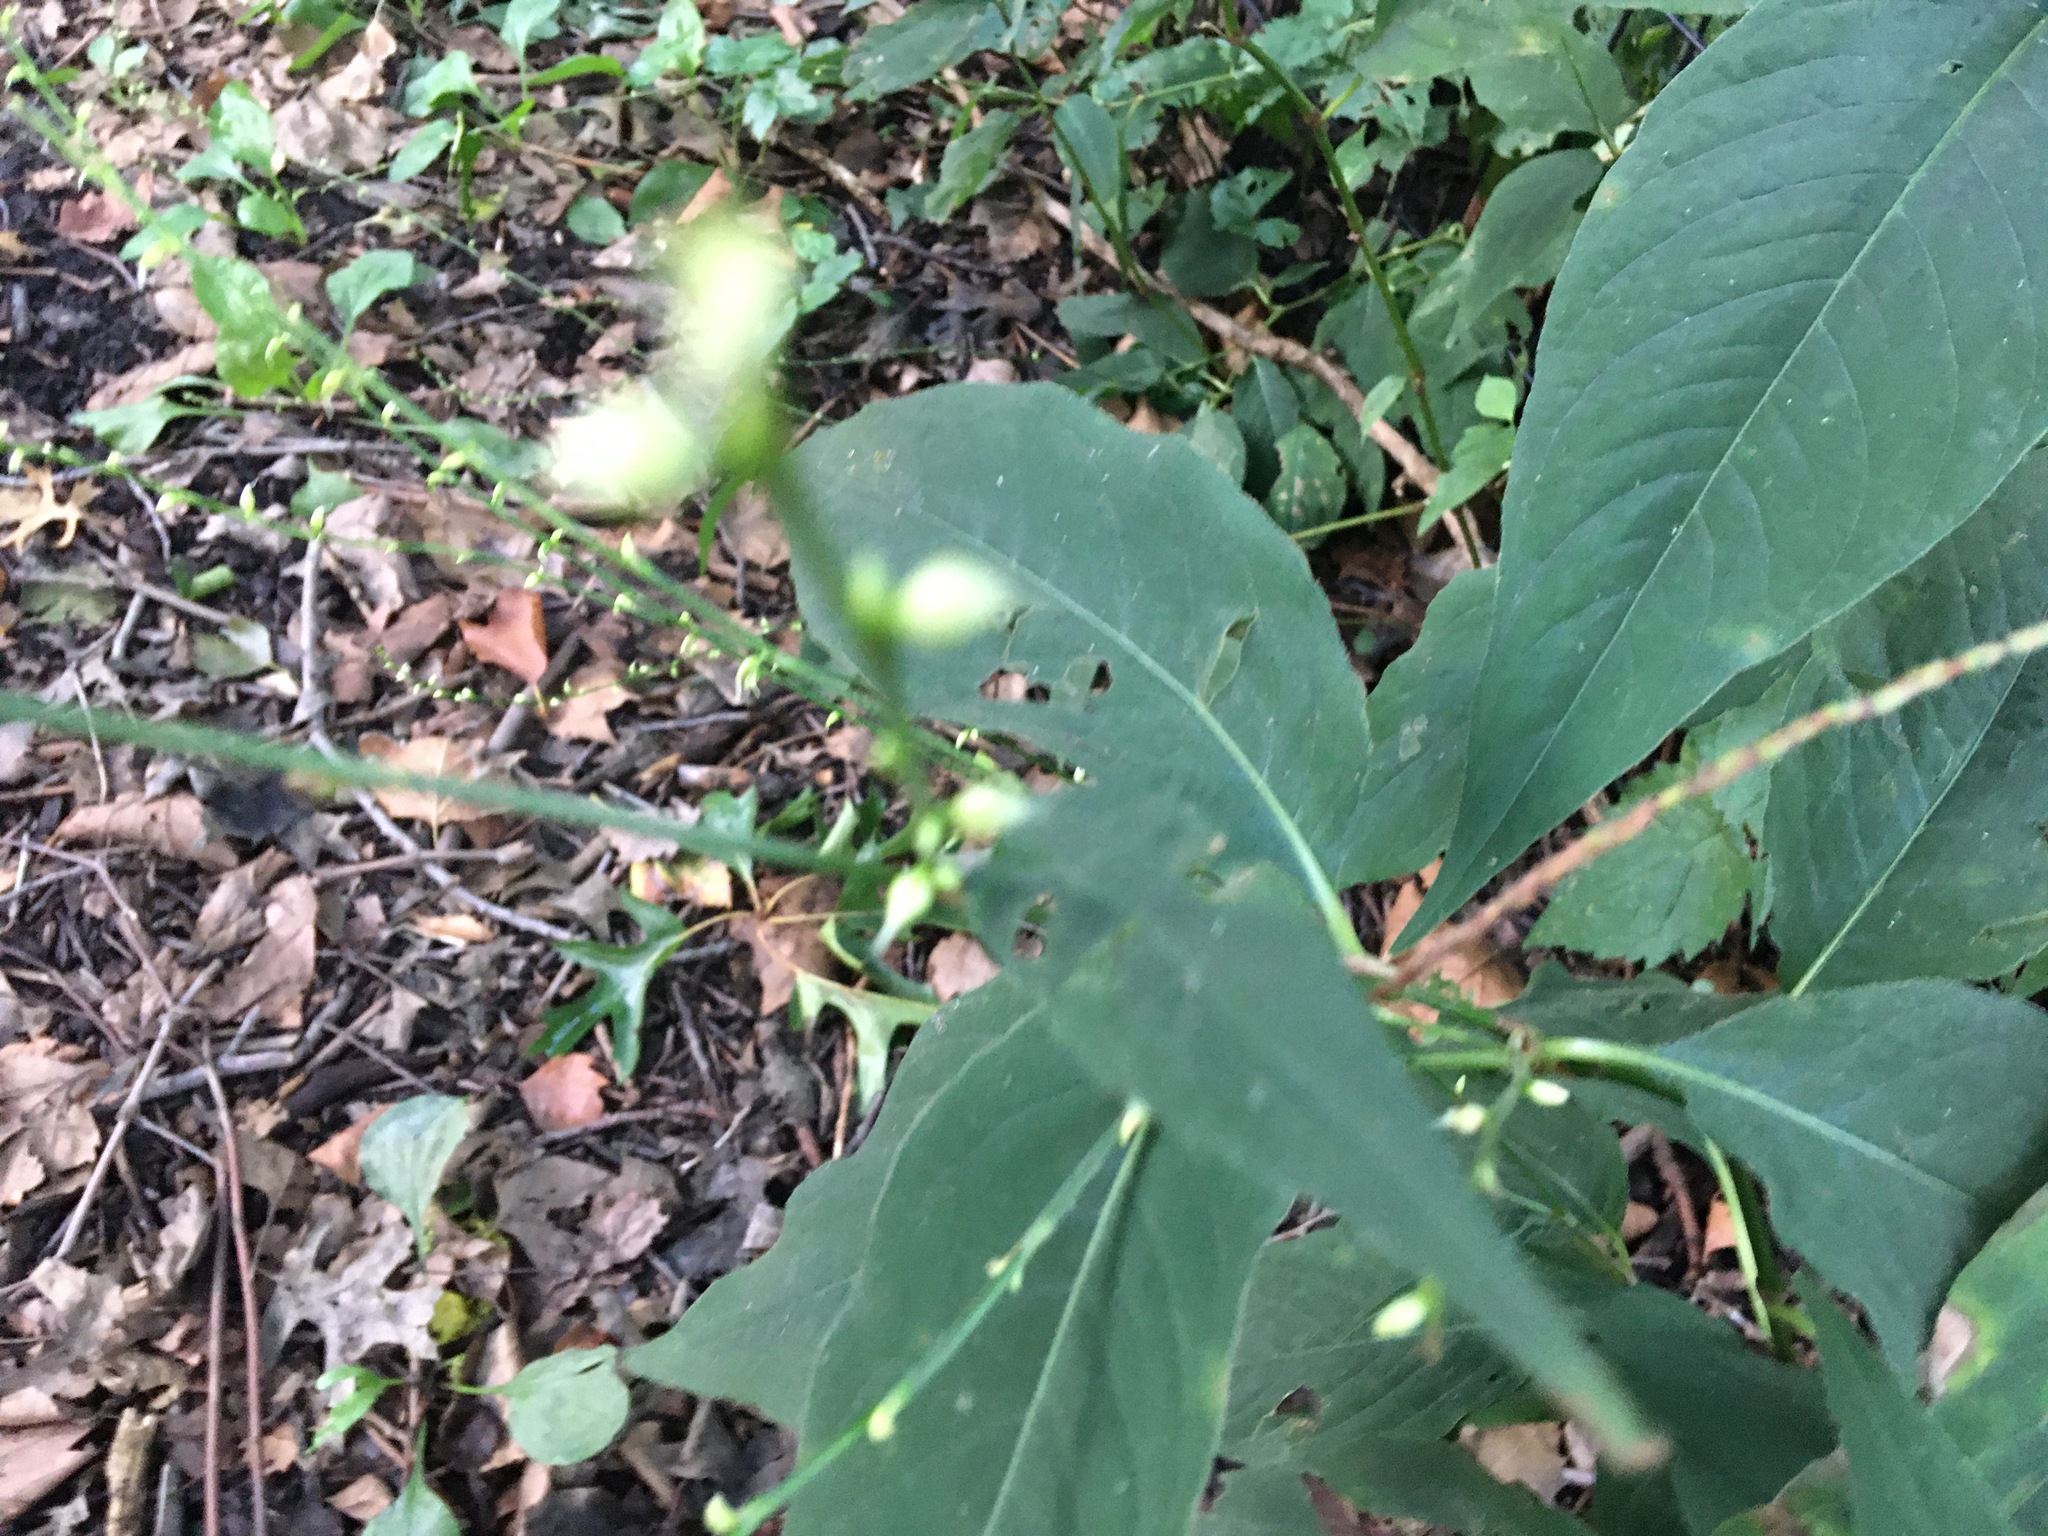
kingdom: Plantae
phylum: Tracheophyta
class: Magnoliopsida
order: Caryophyllales
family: Polygonaceae
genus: Persicaria
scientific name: Persicaria virginiana
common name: Jumpseed
